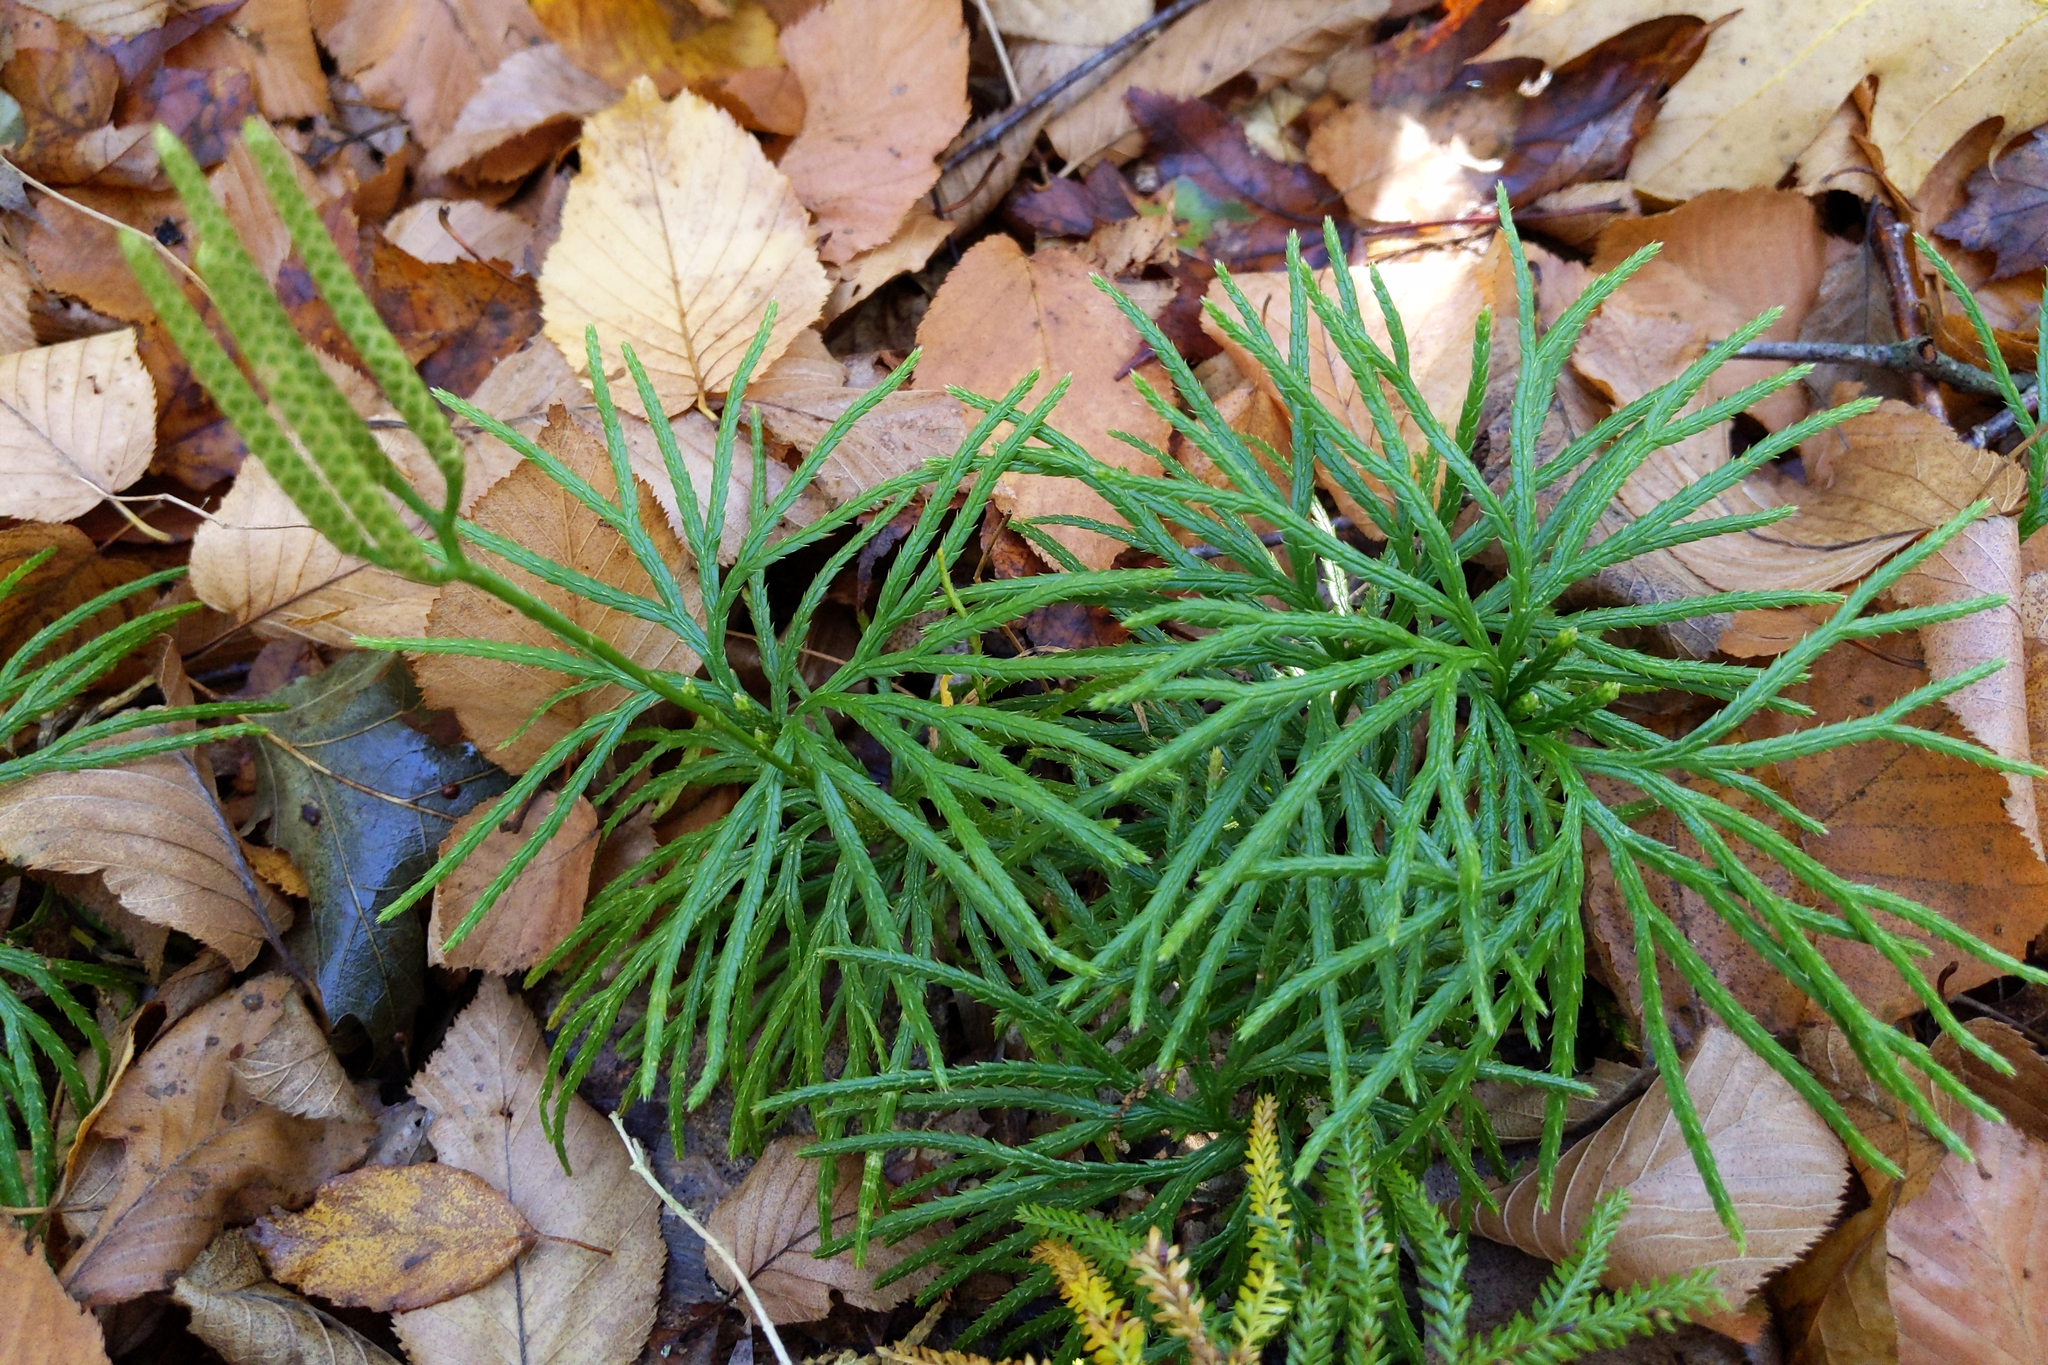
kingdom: Plantae
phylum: Tracheophyta
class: Lycopodiopsida
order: Lycopodiales
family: Lycopodiaceae
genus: Diphasiastrum
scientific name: Diphasiastrum digitatum
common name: Southern running-pine
